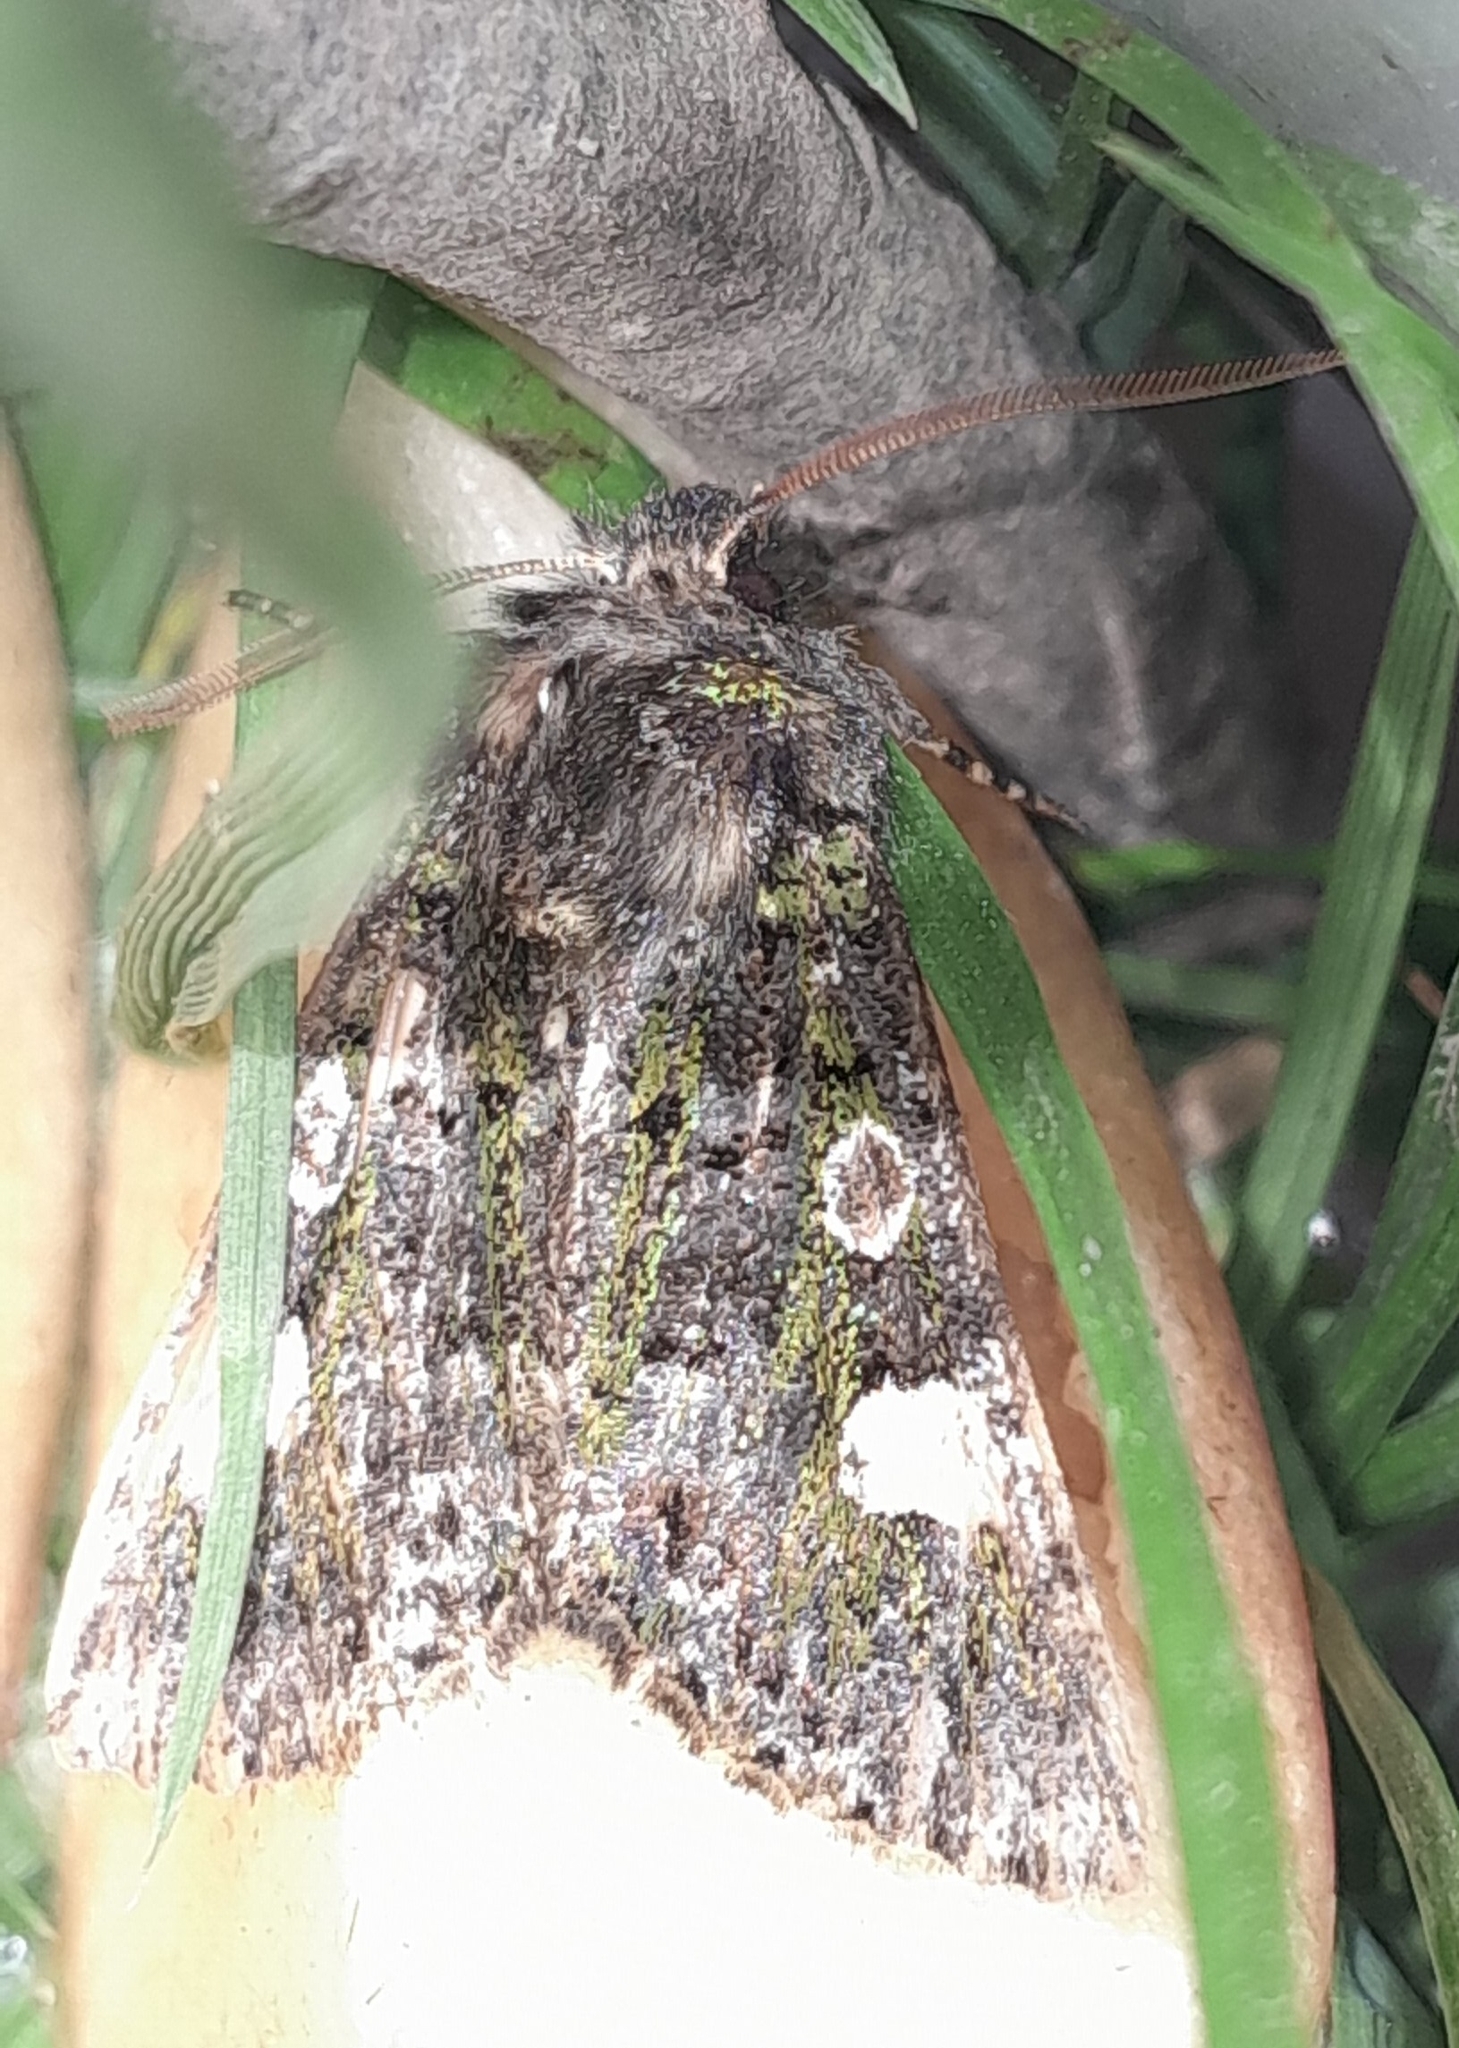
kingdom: Animalia
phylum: Arthropoda
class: Insecta
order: Lepidoptera
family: Noctuidae
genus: Valeria
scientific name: Valeria oleagina
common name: Green-brindled dot
